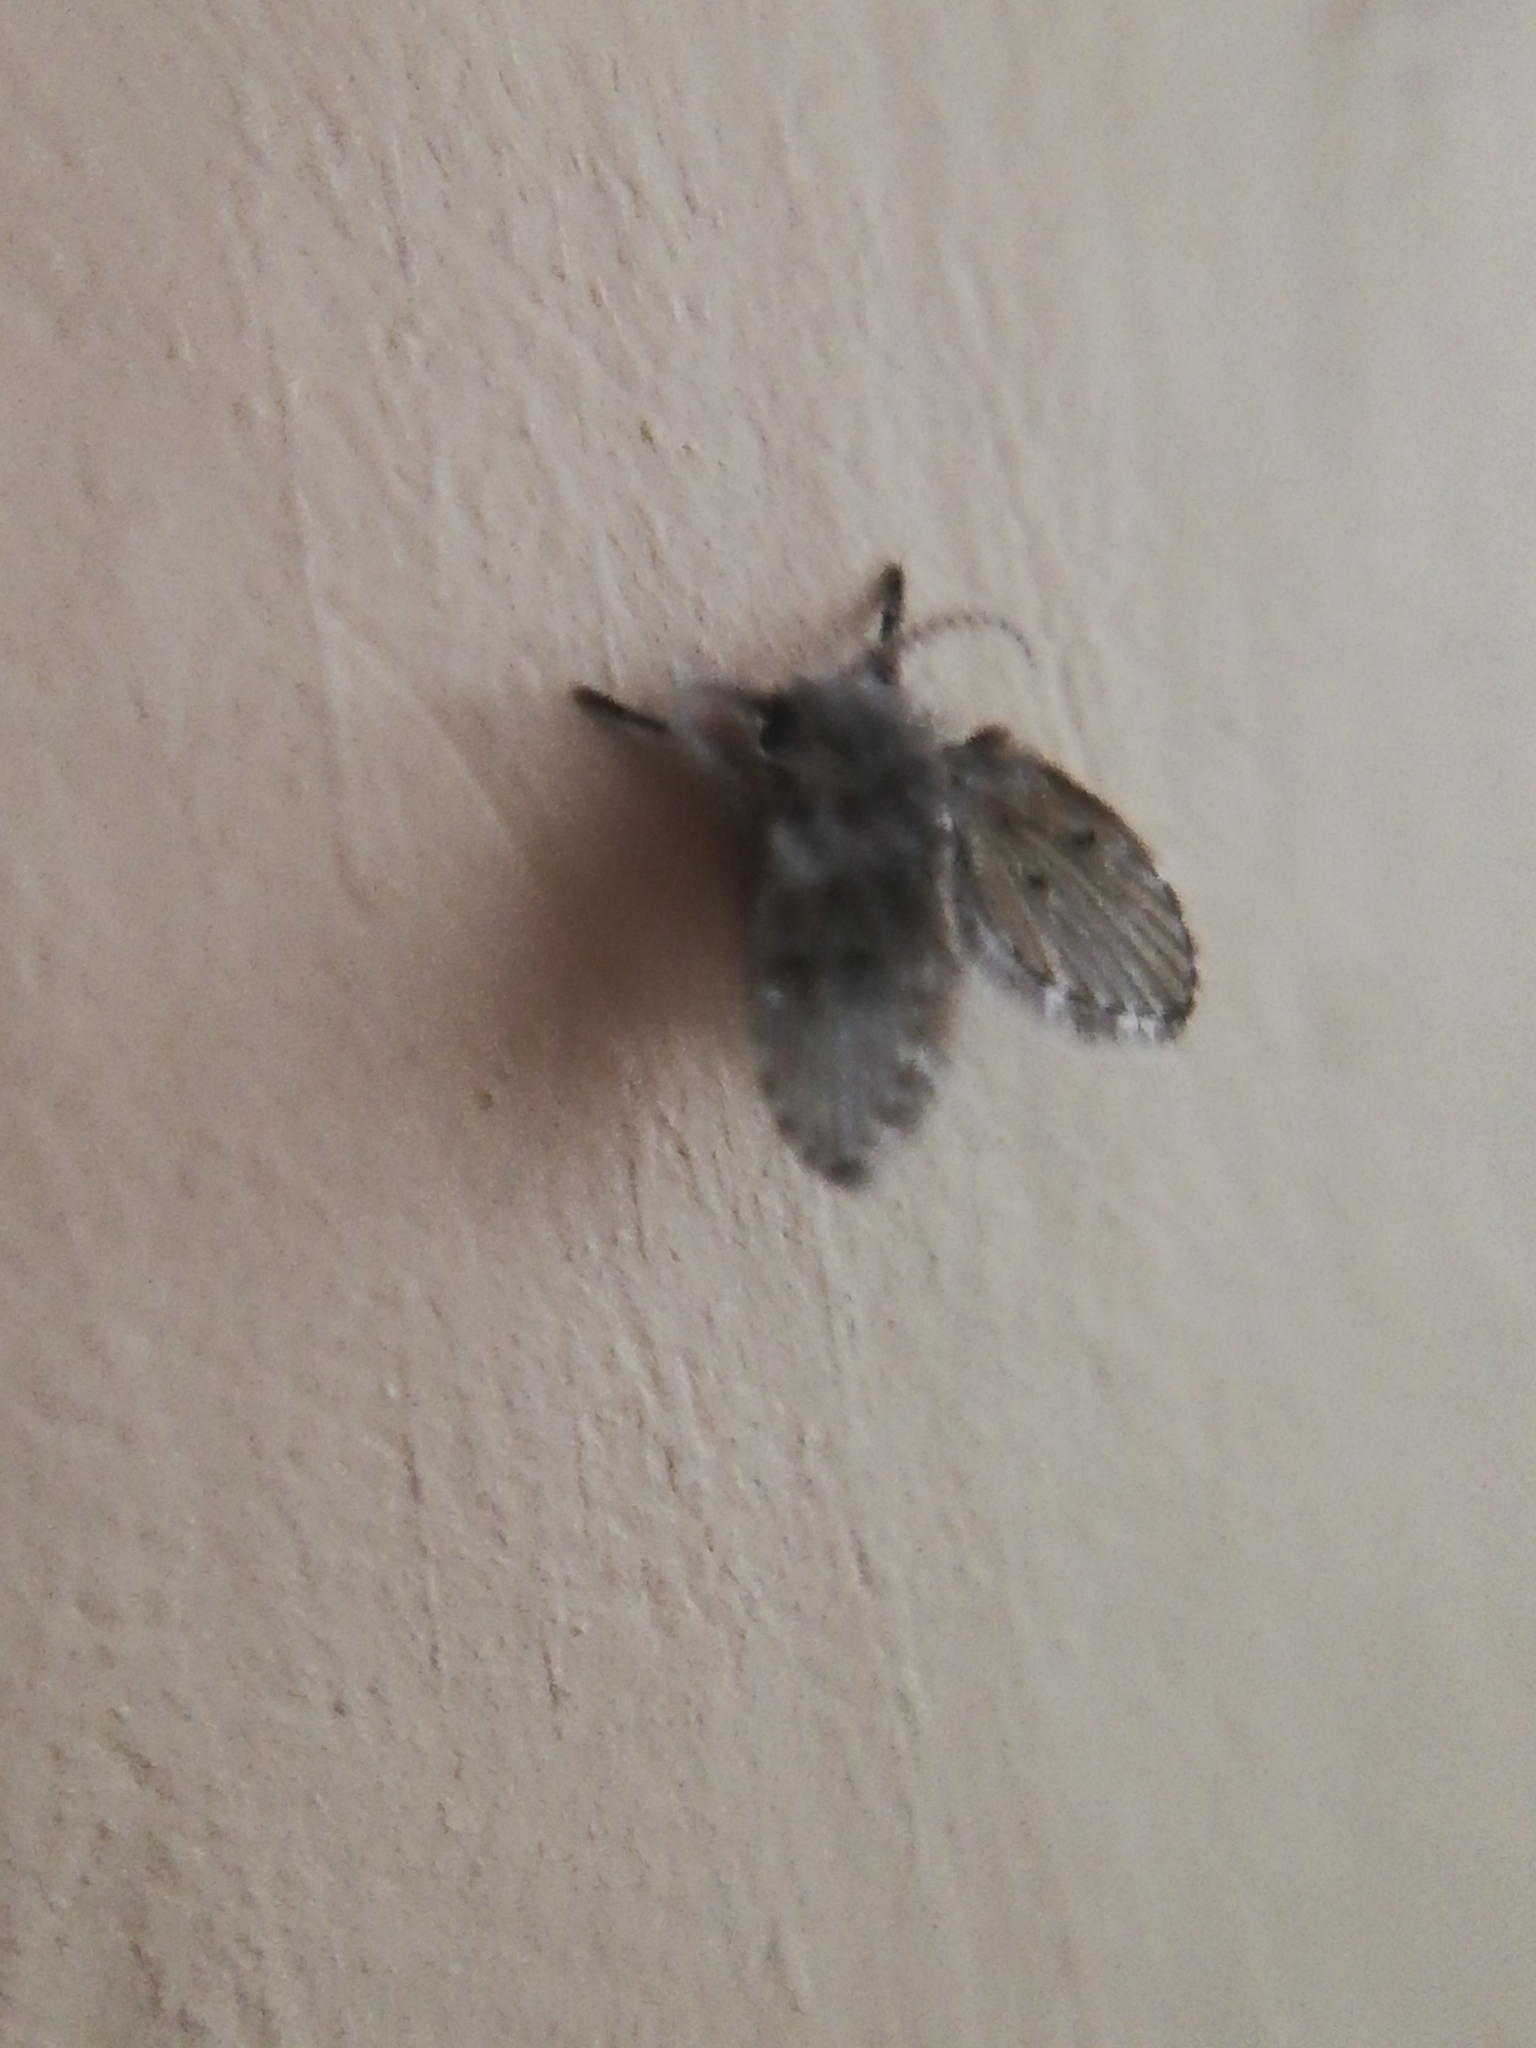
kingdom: Animalia
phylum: Arthropoda
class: Insecta
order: Diptera
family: Psychodidae
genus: Clogmia
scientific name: Clogmia albipunctatus
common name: White-spotted moth fly
